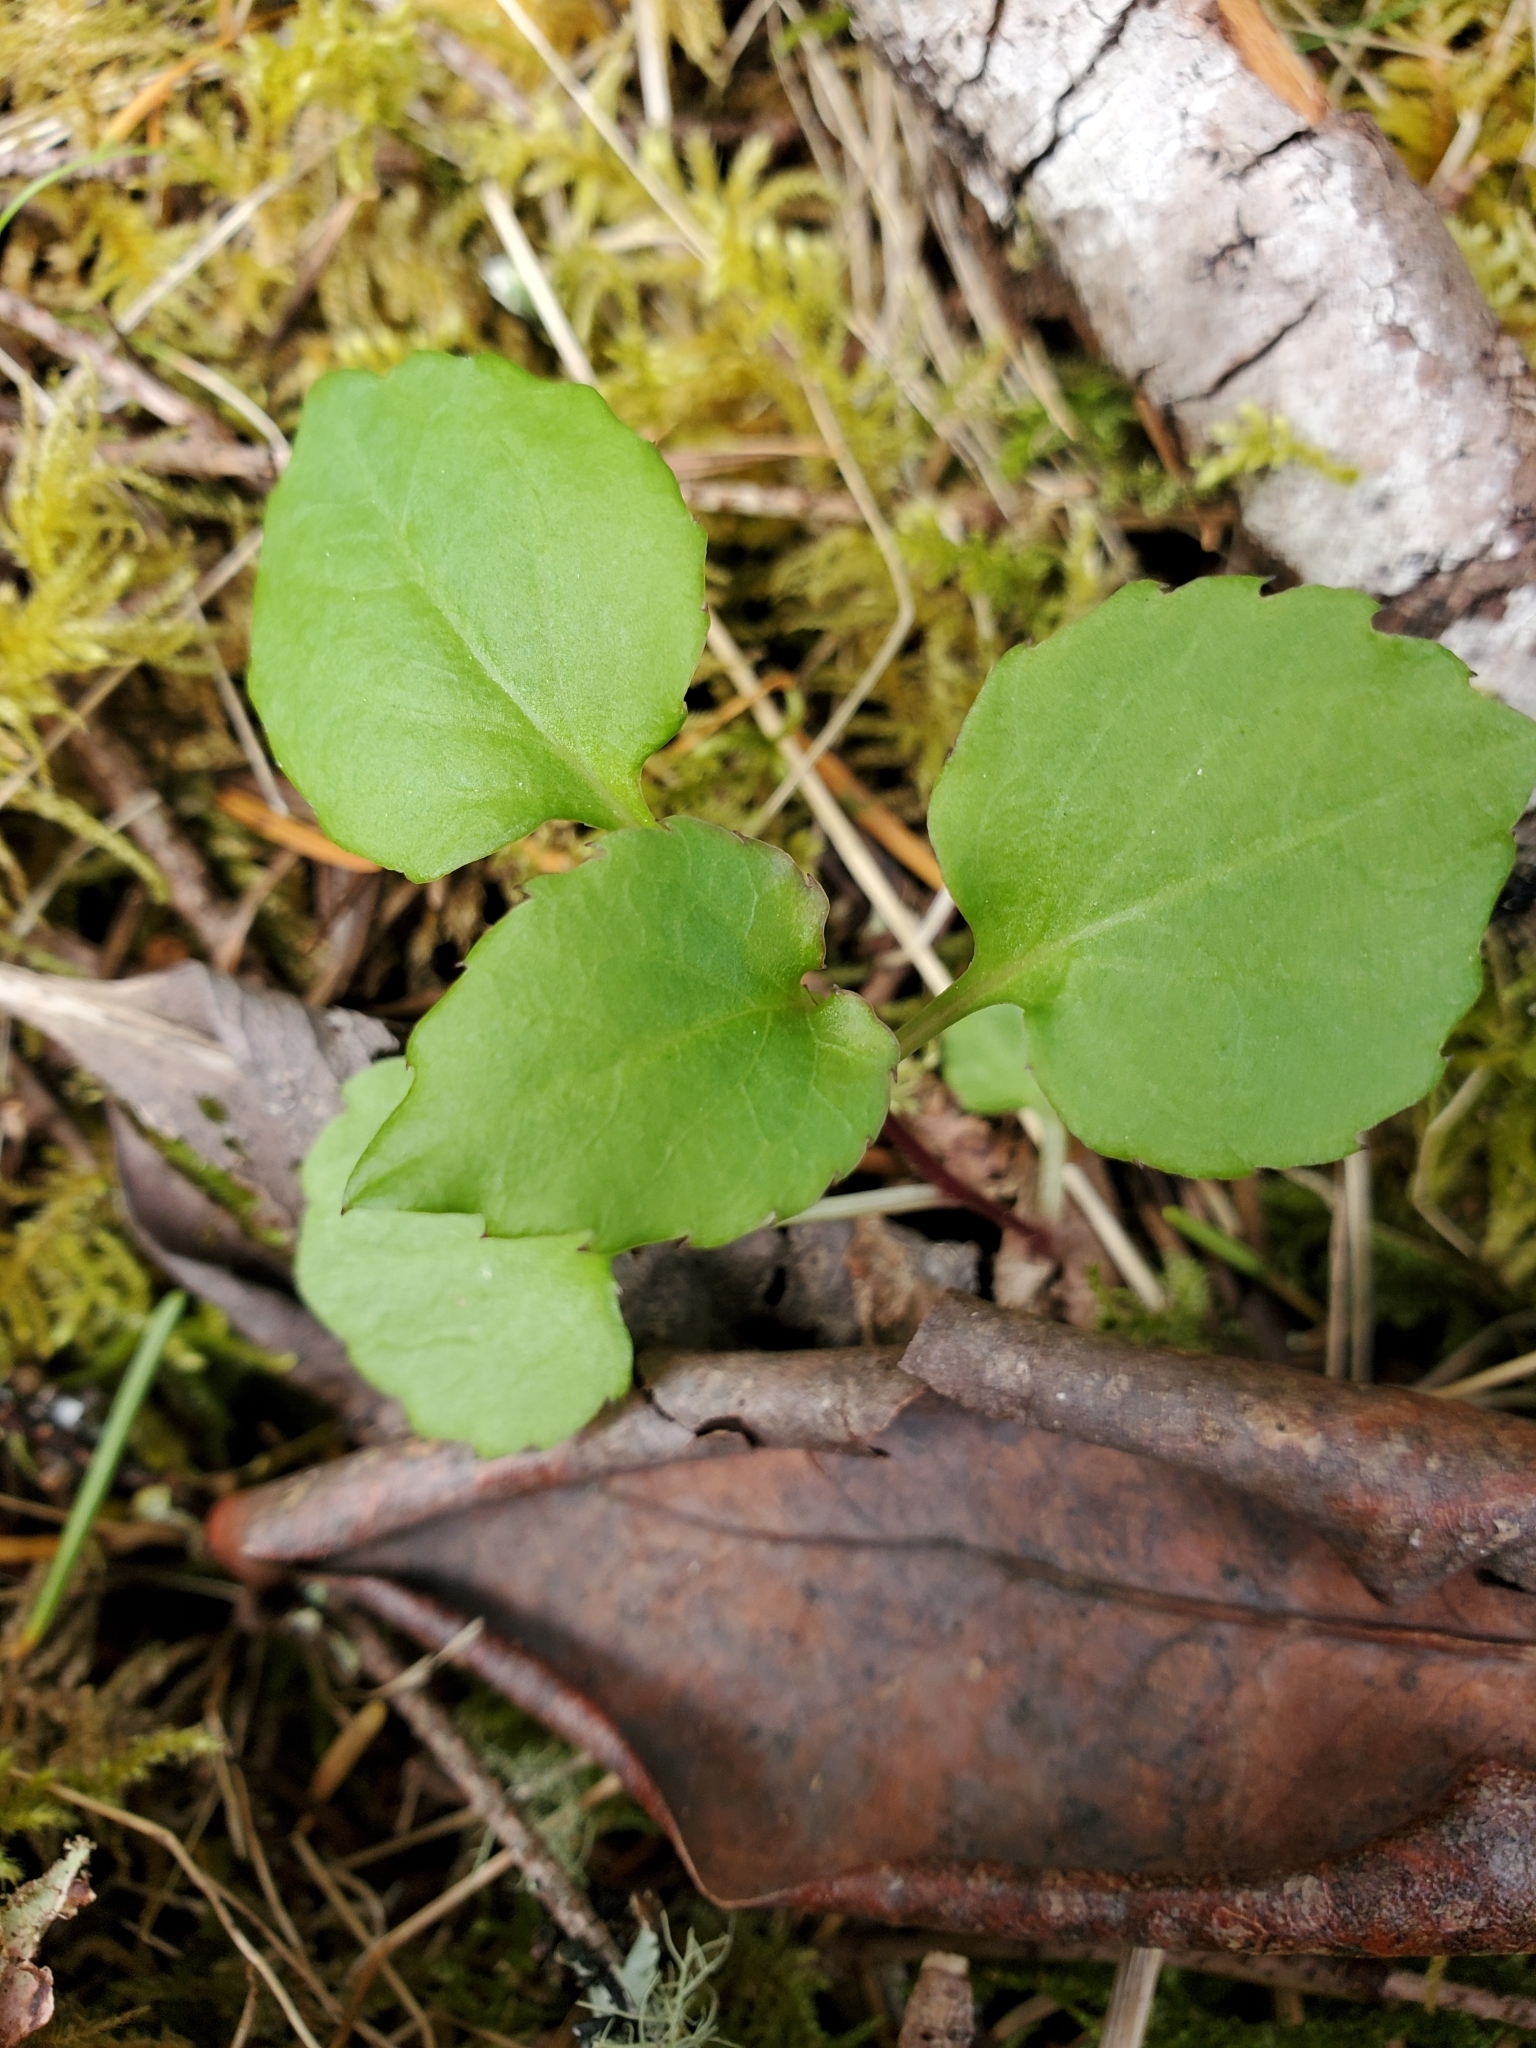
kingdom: Plantae
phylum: Tracheophyta
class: Magnoliopsida
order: Asterales
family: Campanulaceae
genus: Campanula
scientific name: Campanula scouleri
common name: Scouler's harebell
